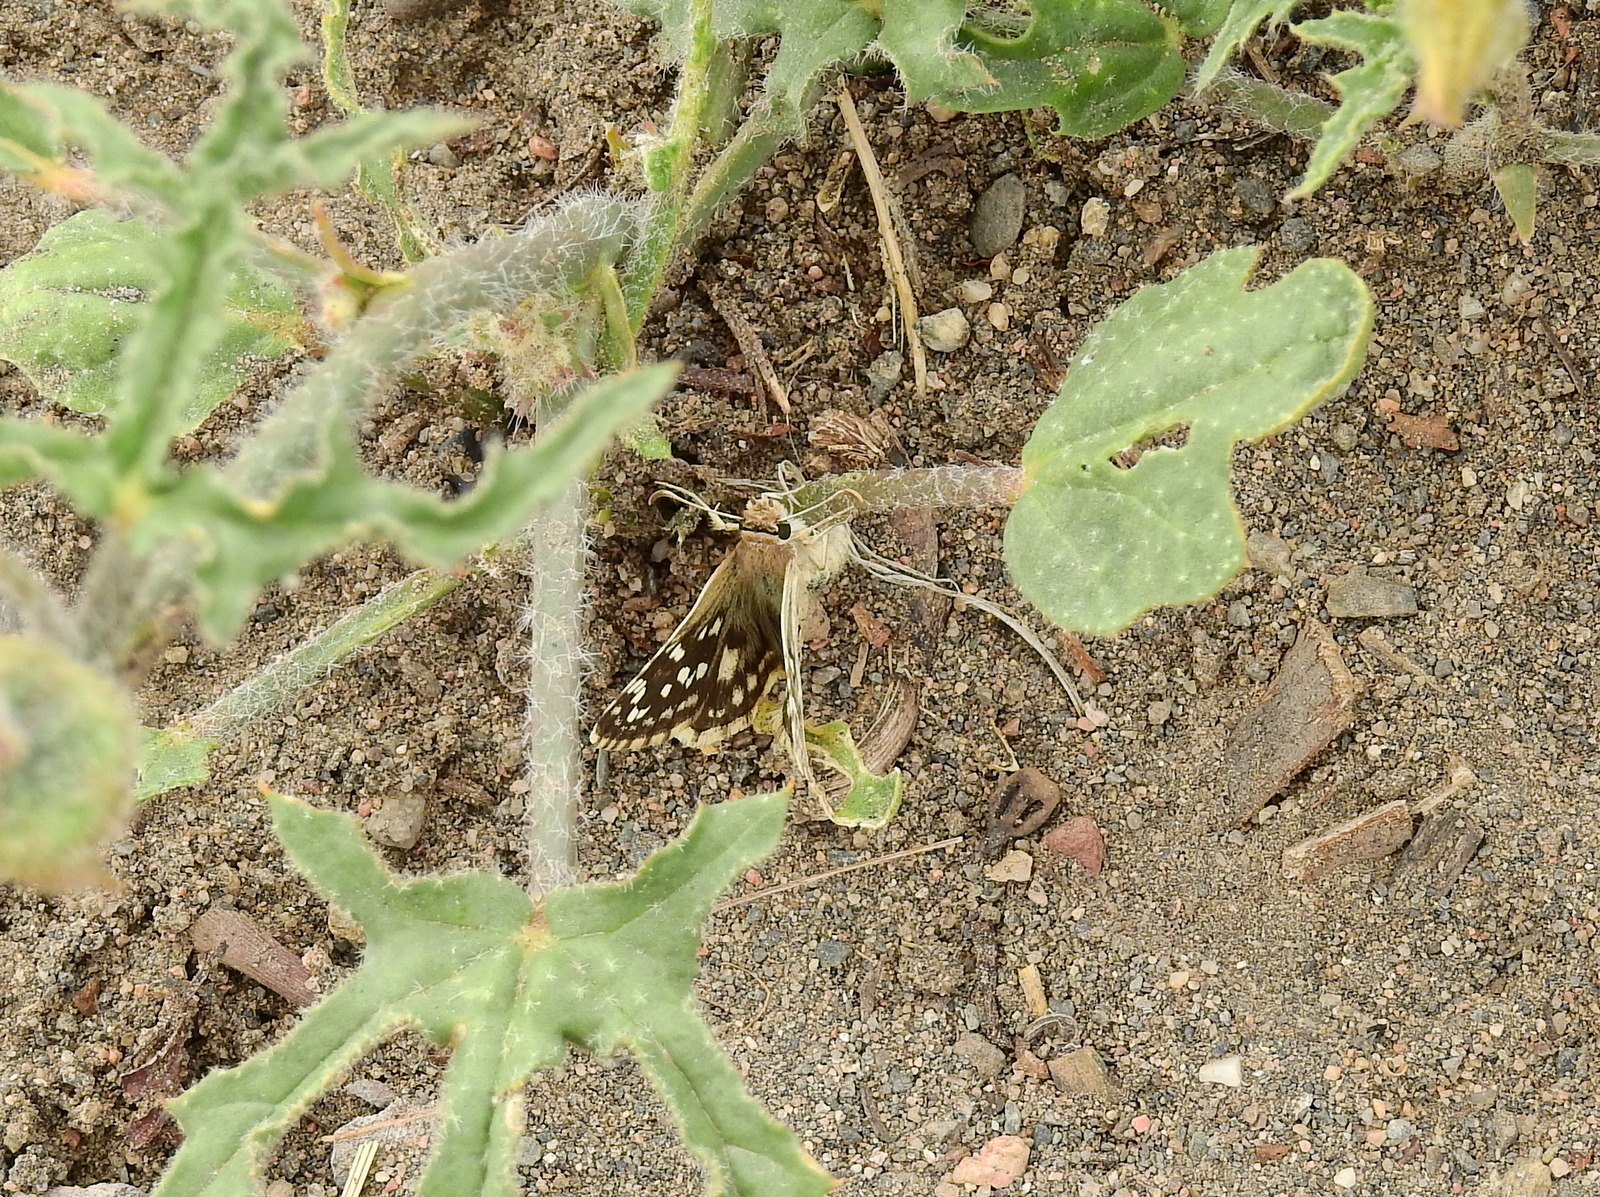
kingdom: Animalia
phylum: Arthropoda
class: Insecta
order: Lepidoptera
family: Hesperiidae
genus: Chirgus
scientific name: Chirgus fides
